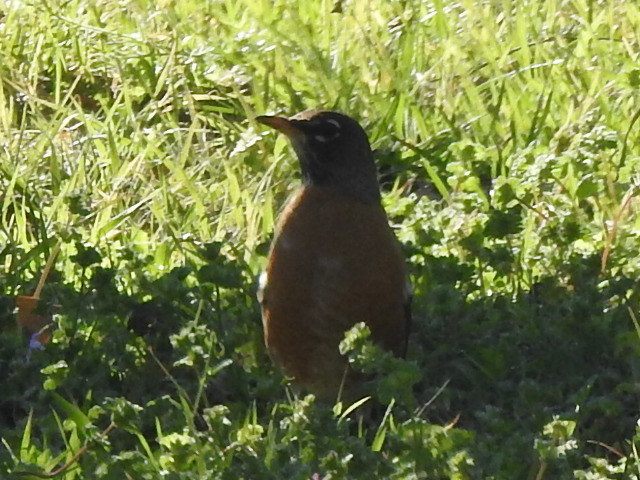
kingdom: Animalia
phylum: Chordata
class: Aves
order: Passeriformes
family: Turdidae
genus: Turdus
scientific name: Turdus migratorius
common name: American robin
